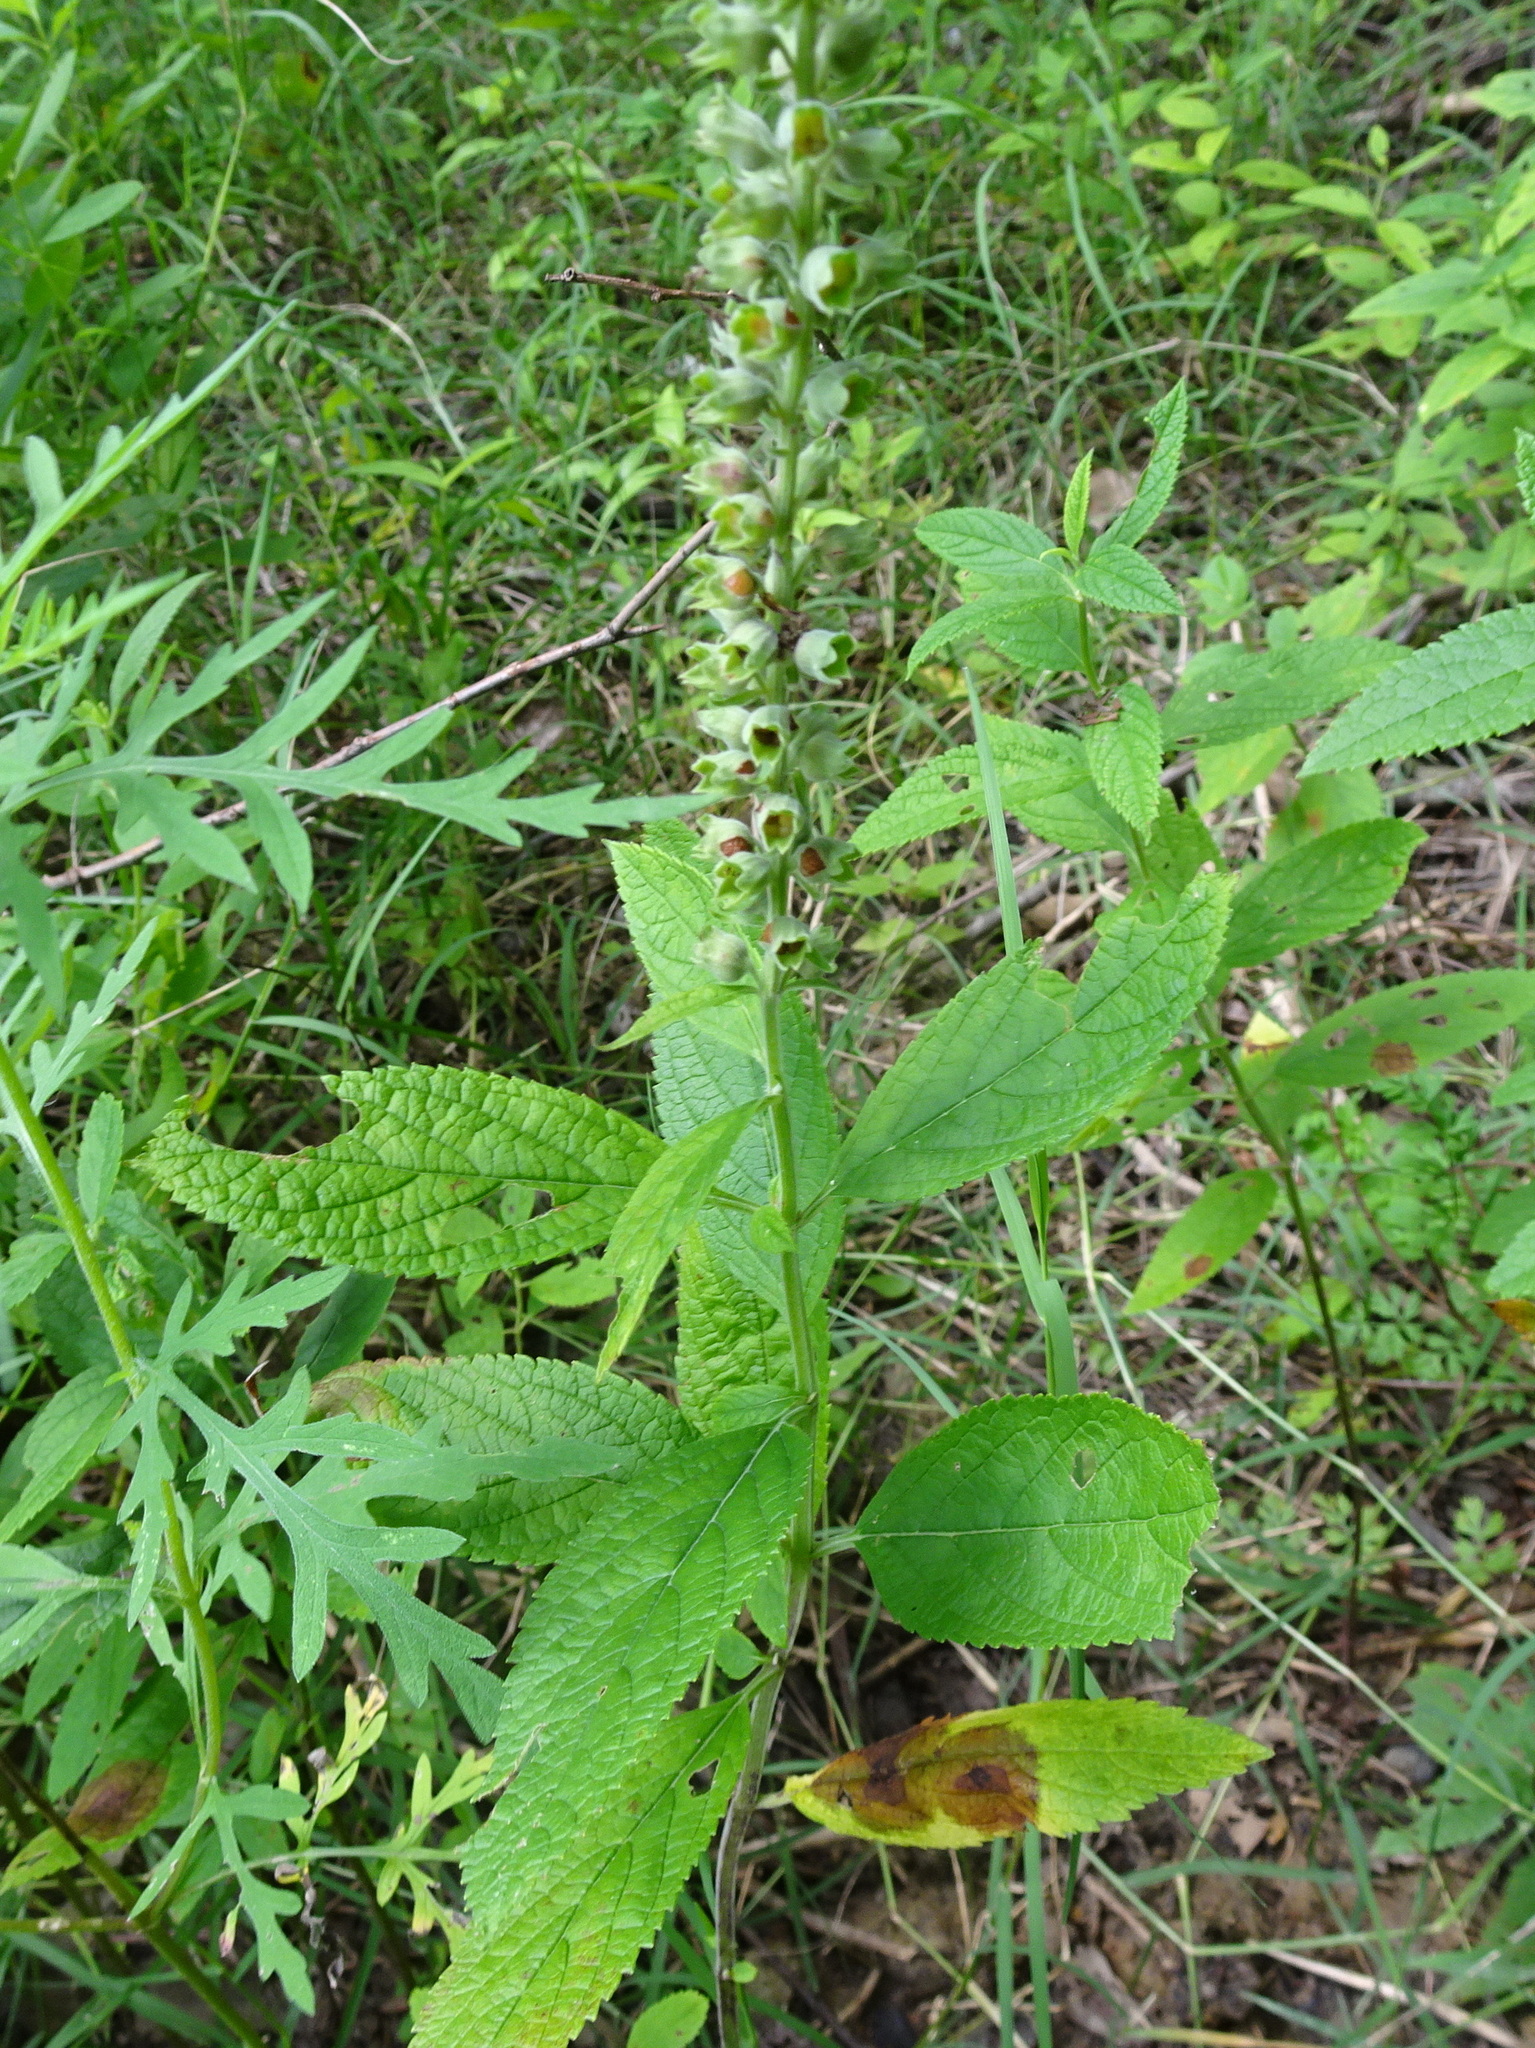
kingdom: Plantae
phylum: Tracheophyta
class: Magnoliopsida
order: Lamiales
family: Lamiaceae
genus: Teucrium
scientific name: Teucrium canadense
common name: American germander
